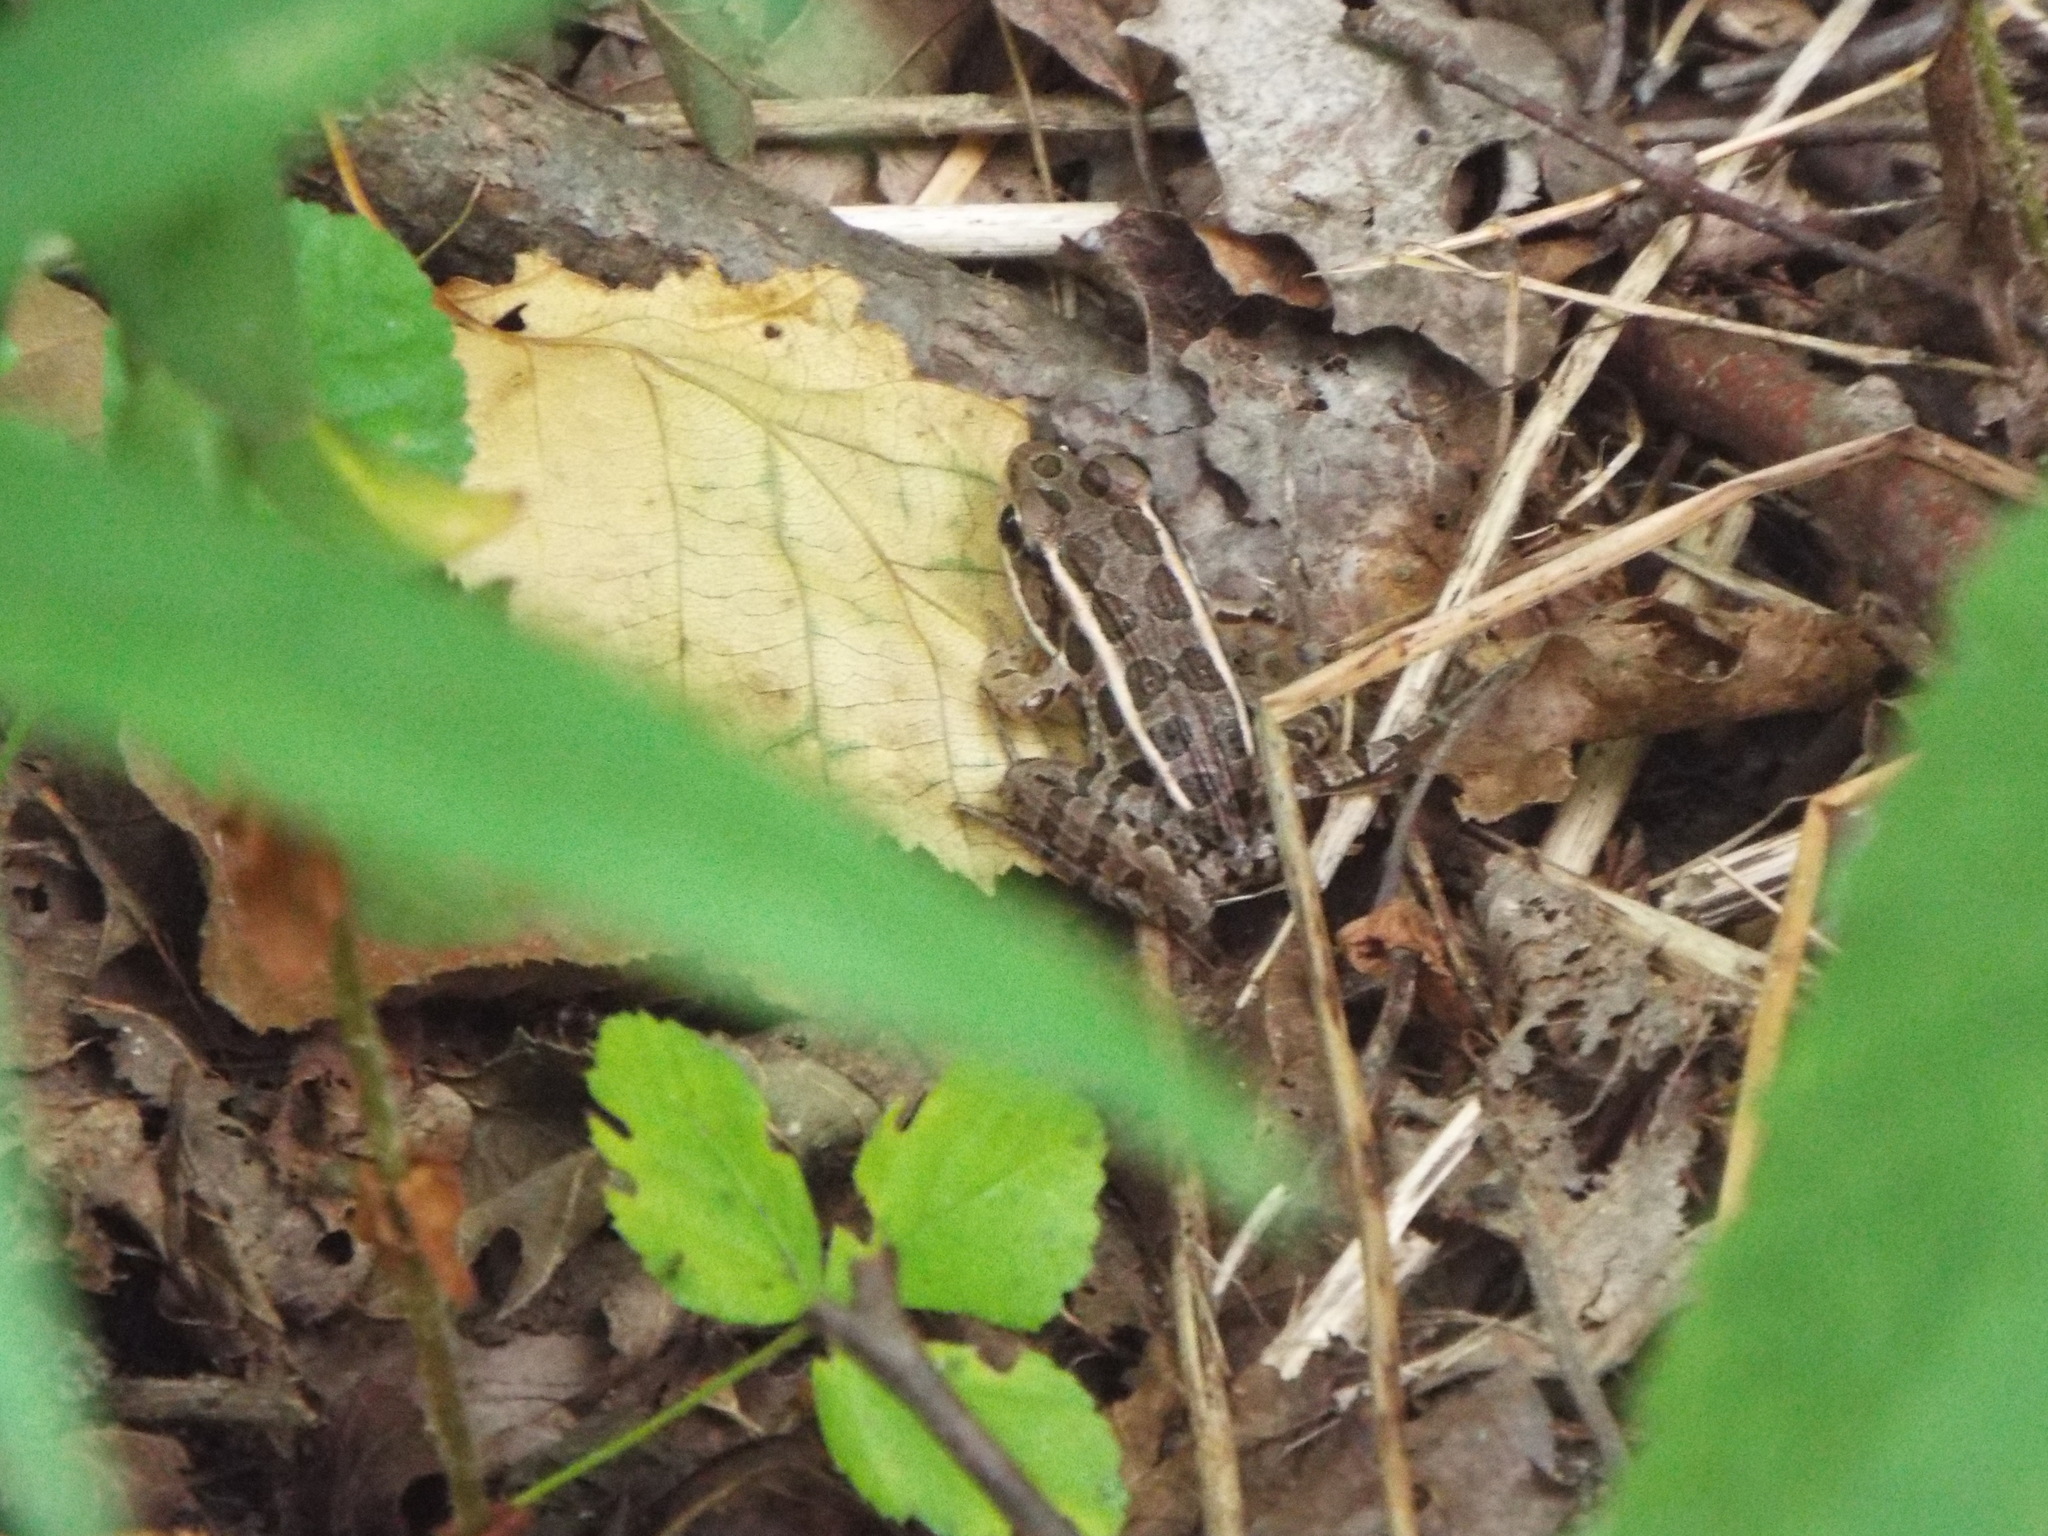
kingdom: Animalia
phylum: Chordata
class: Amphibia
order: Anura
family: Ranidae
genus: Lithobates
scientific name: Lithobates palustris
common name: Pickerel frog
